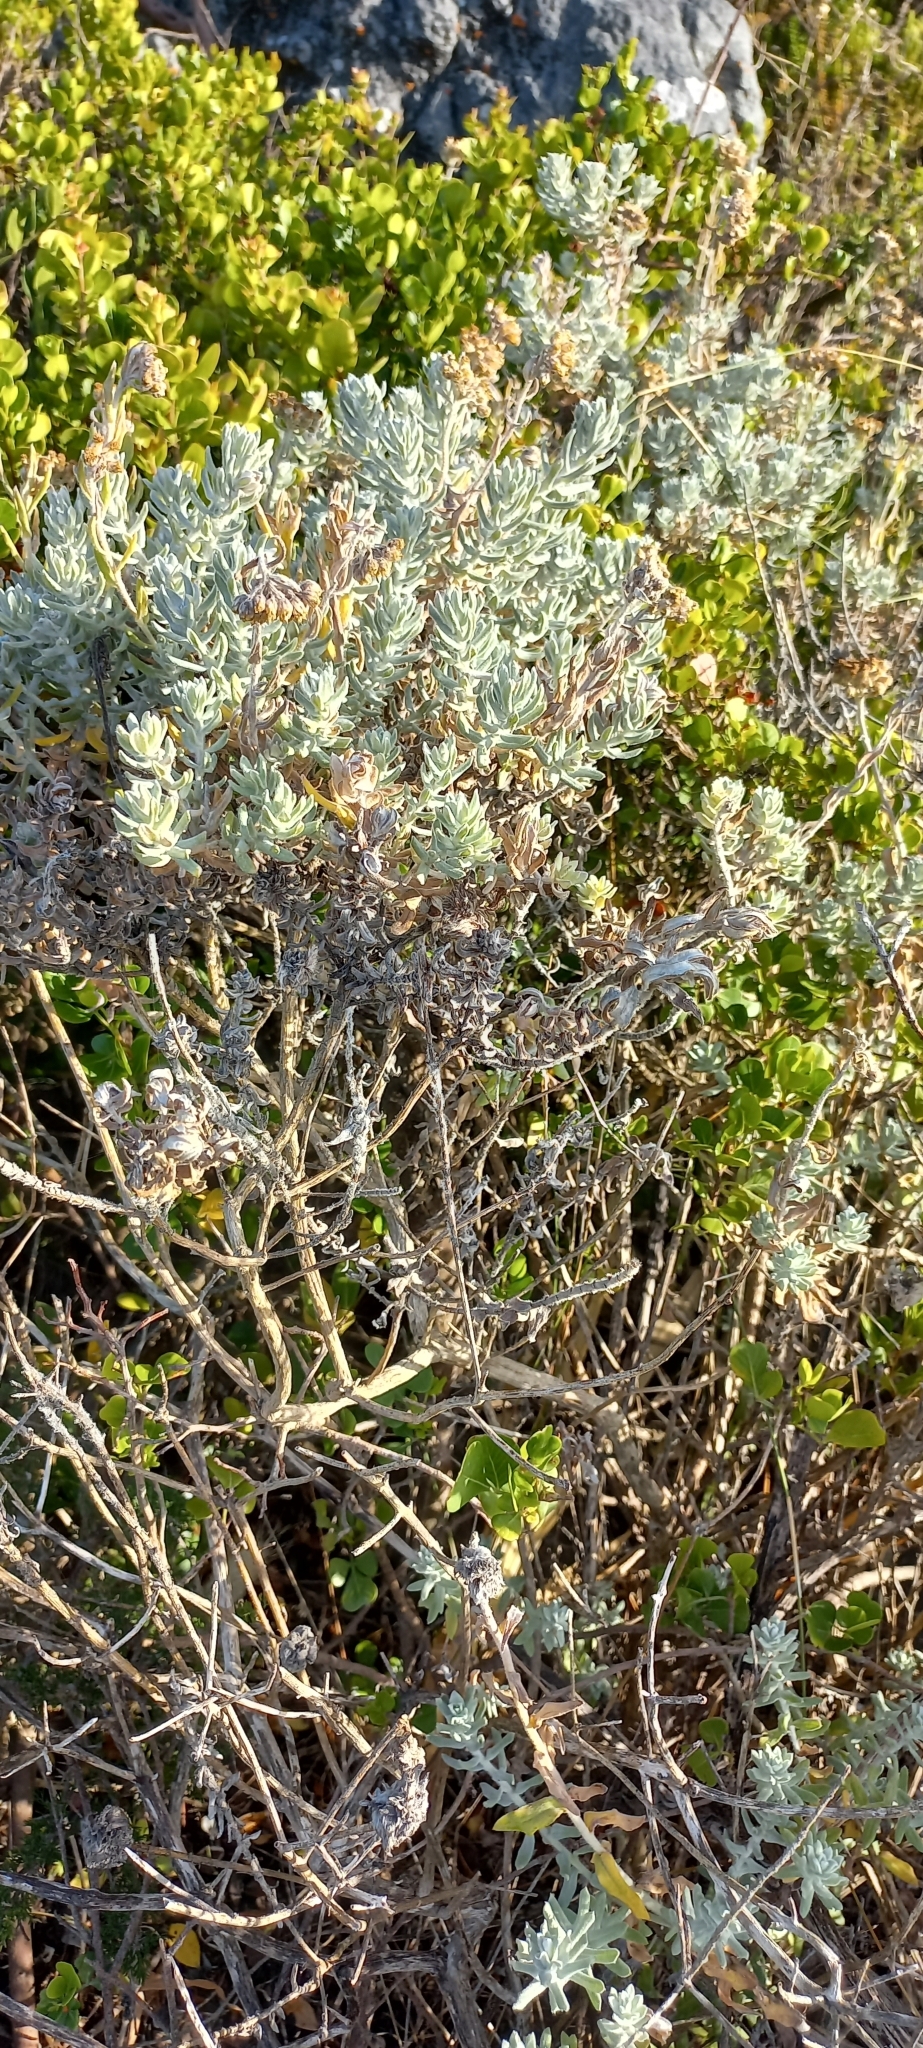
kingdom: Plantae
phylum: Tracheophyta
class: Magnoliopsida
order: Asterales
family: Asteraceae
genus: Eriocephalus
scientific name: Eriocephalus racemosus
